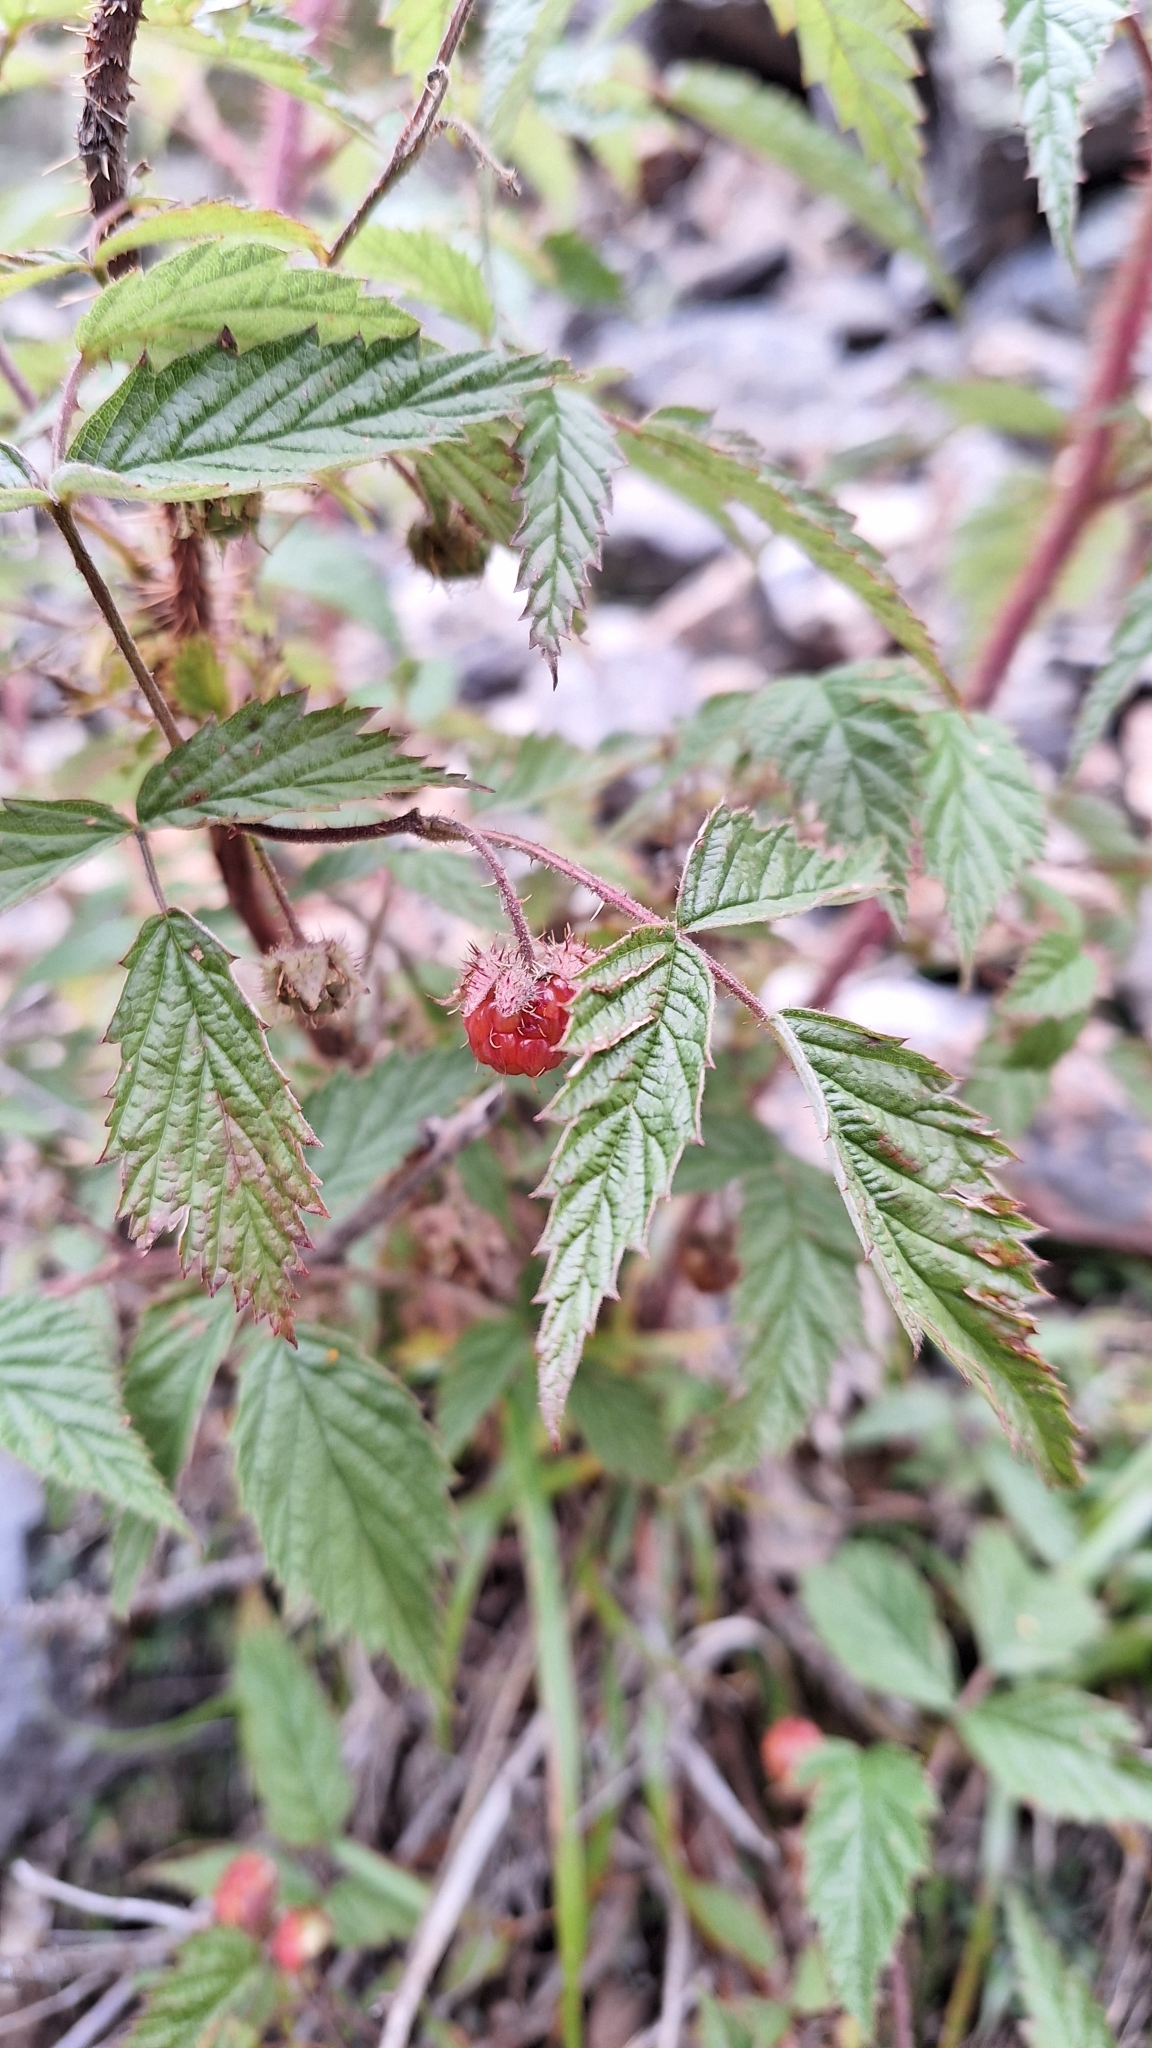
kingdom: Plantae
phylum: Tracheophyta
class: Magnoliopsida
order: Rosales
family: Rosaceae
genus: Rubus
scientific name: Rubus sachalinensis
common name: Red raspberry
